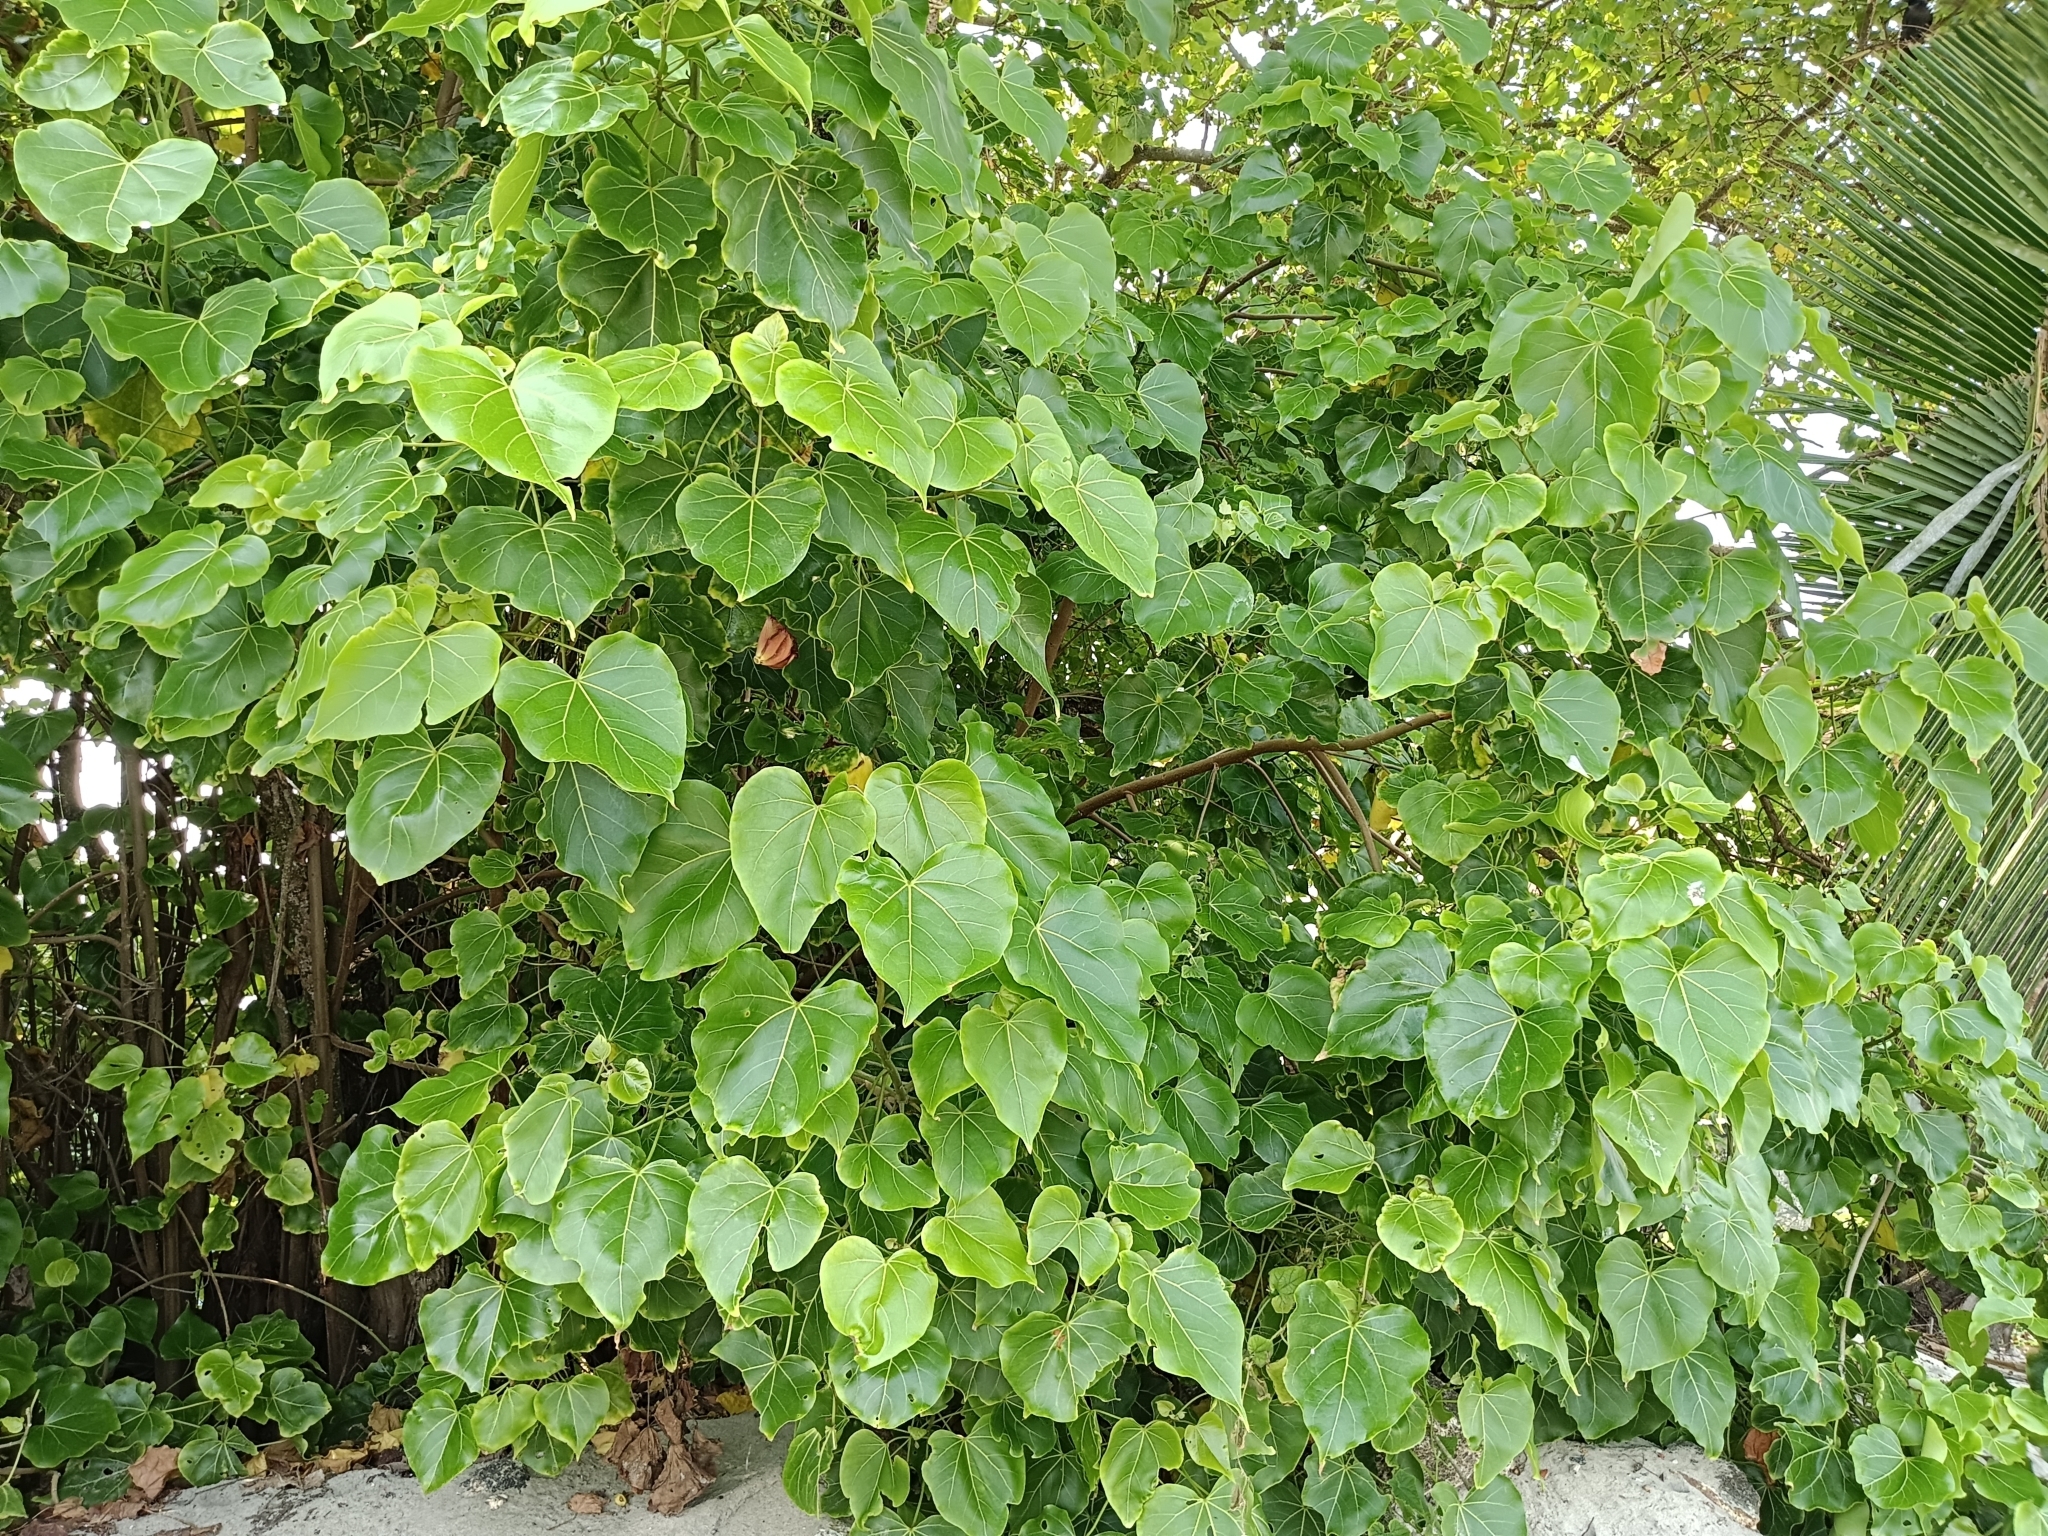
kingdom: Plantae
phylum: Tracheophyta
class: Magnoliopsida
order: Malvales
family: Malvaceae
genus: Thespesia
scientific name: Thespesia populnea
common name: Seaside mahoe
